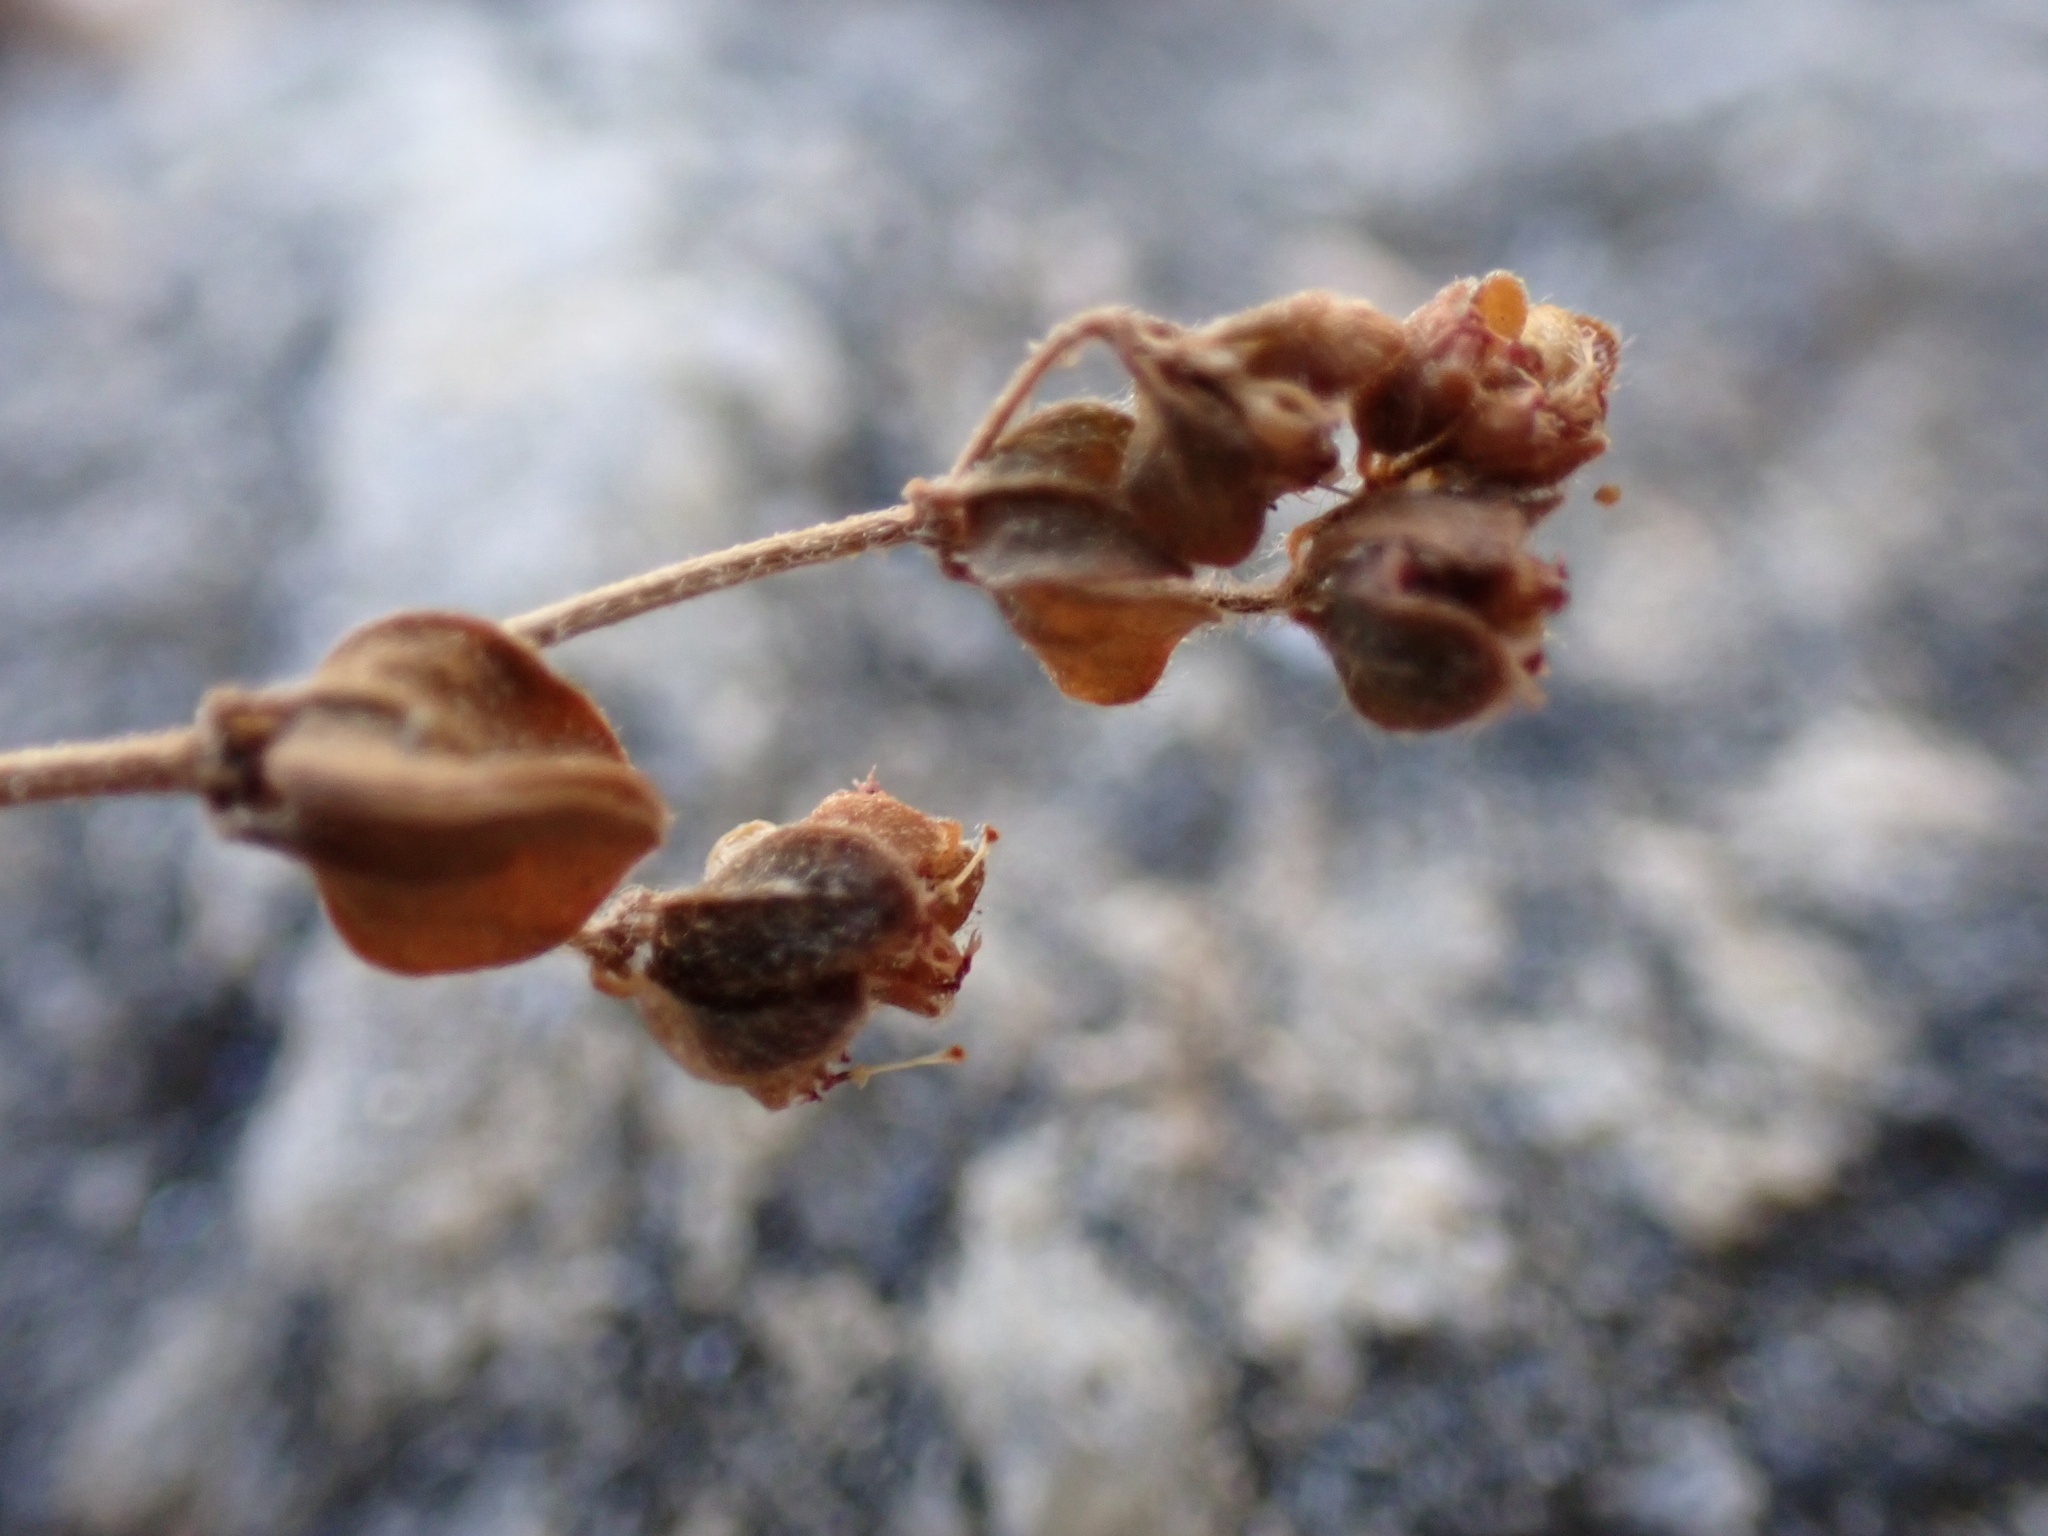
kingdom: Plantae
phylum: Tracheophyta
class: Magnoliopsida
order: Malpighiales
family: Euphorbiaceae
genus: Euphorbia
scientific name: Euphorbia setiloba
